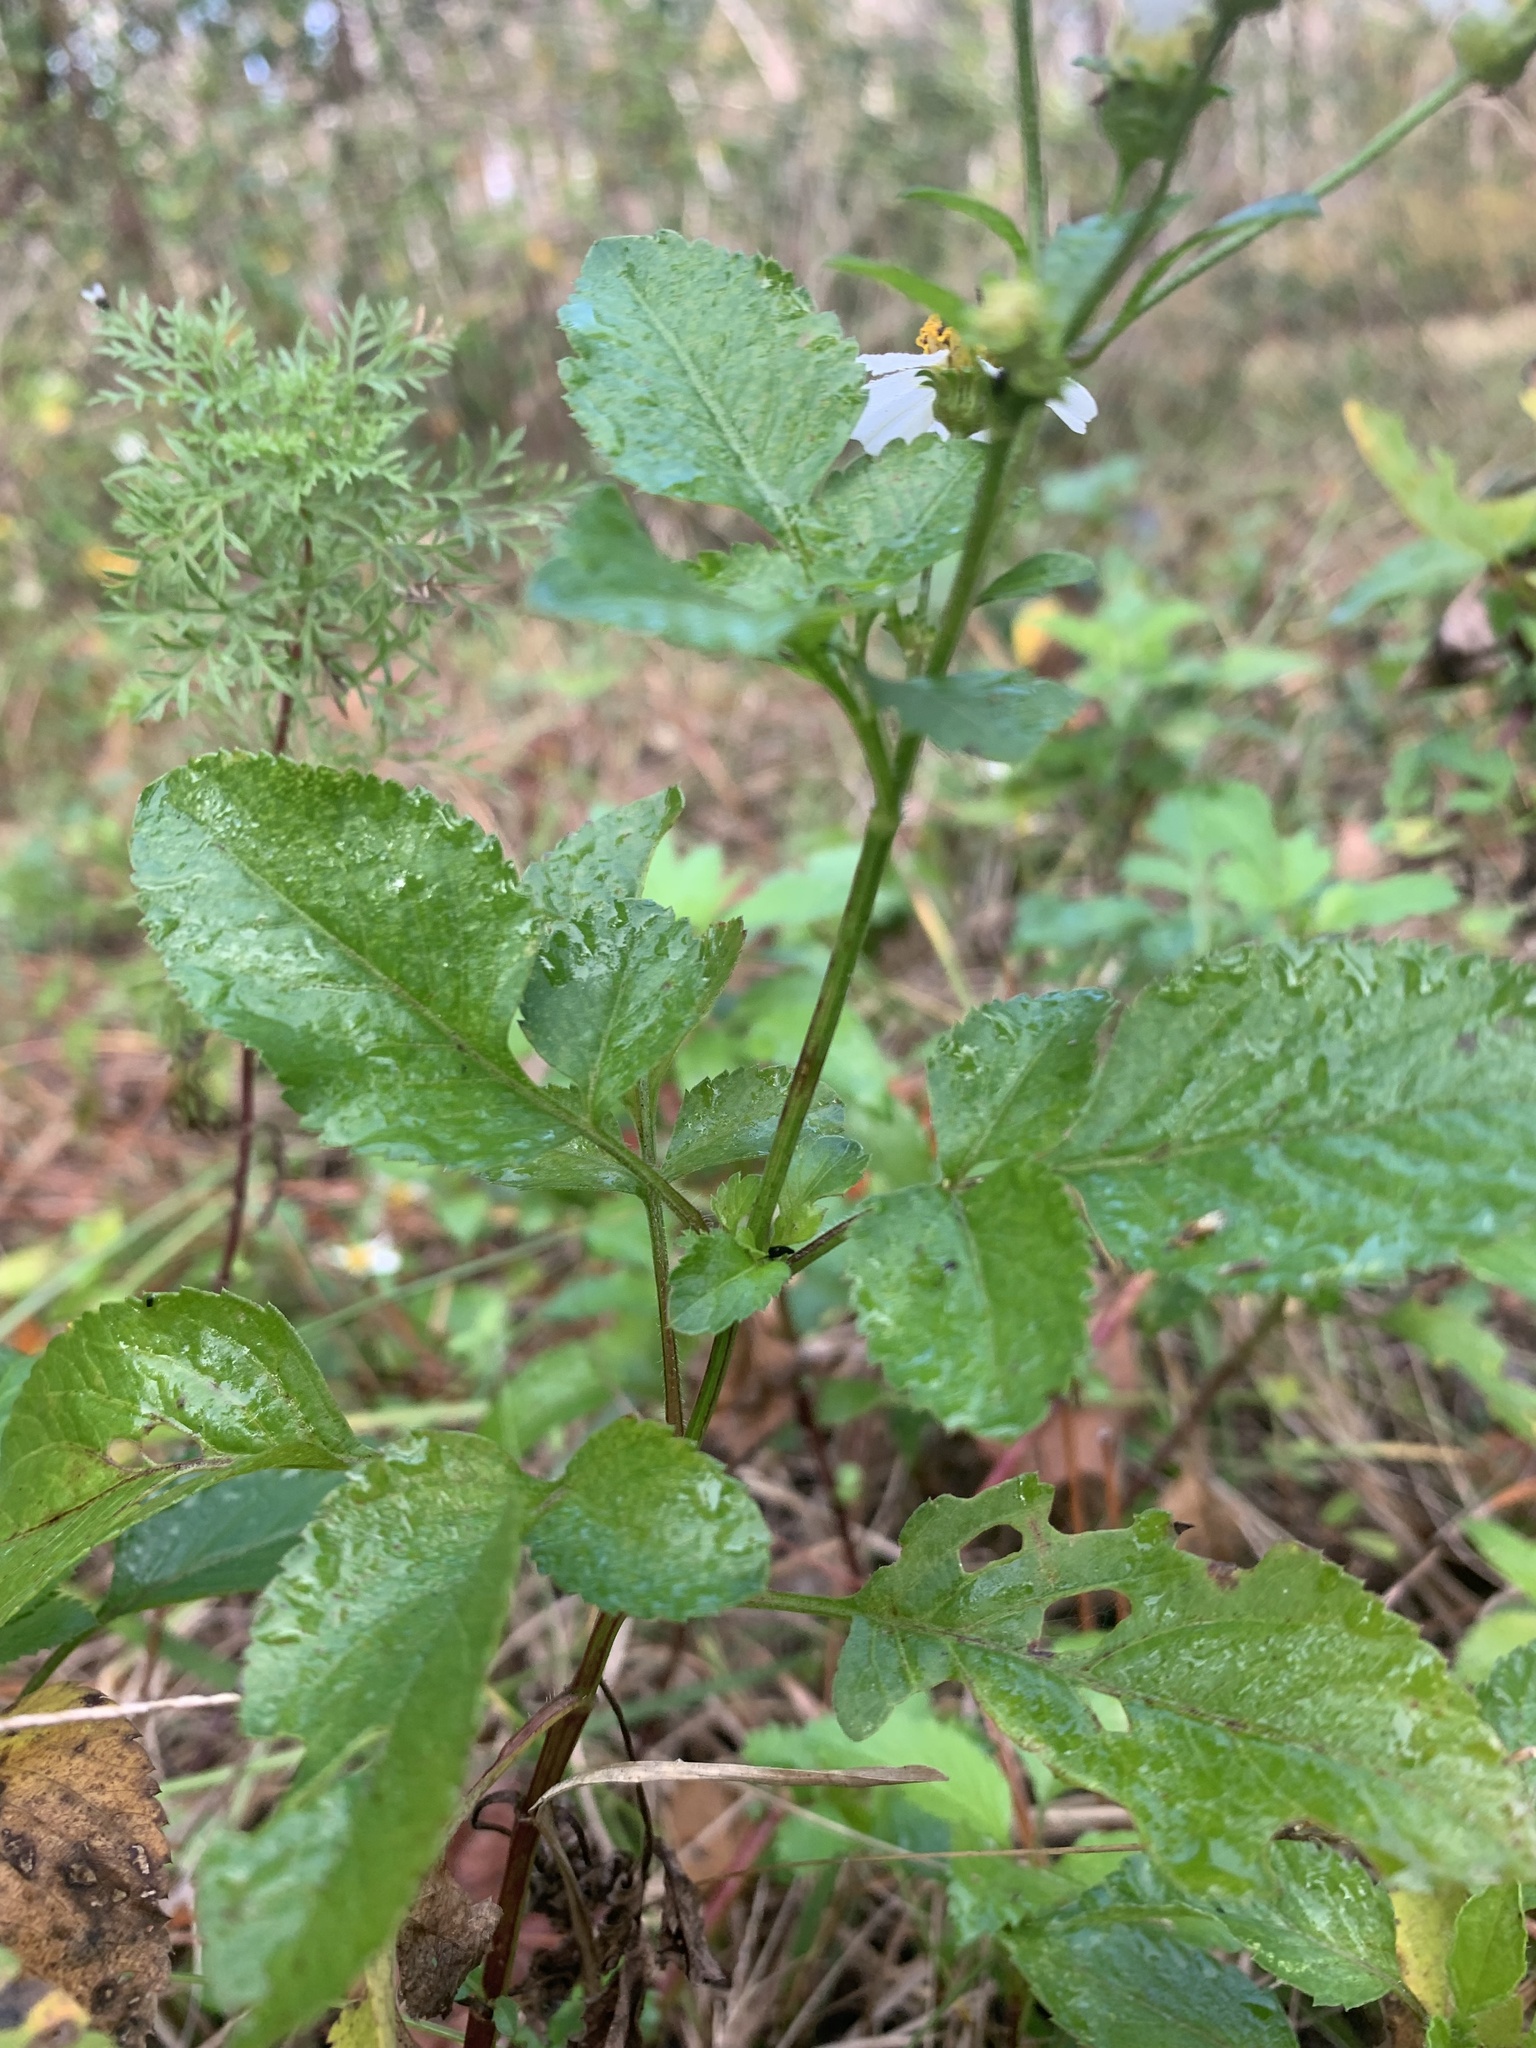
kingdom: Plantae
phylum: Tracheophyta
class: Magnoliopsida
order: Asterales
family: Asteraceae
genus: Bidens
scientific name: Bidens alba
